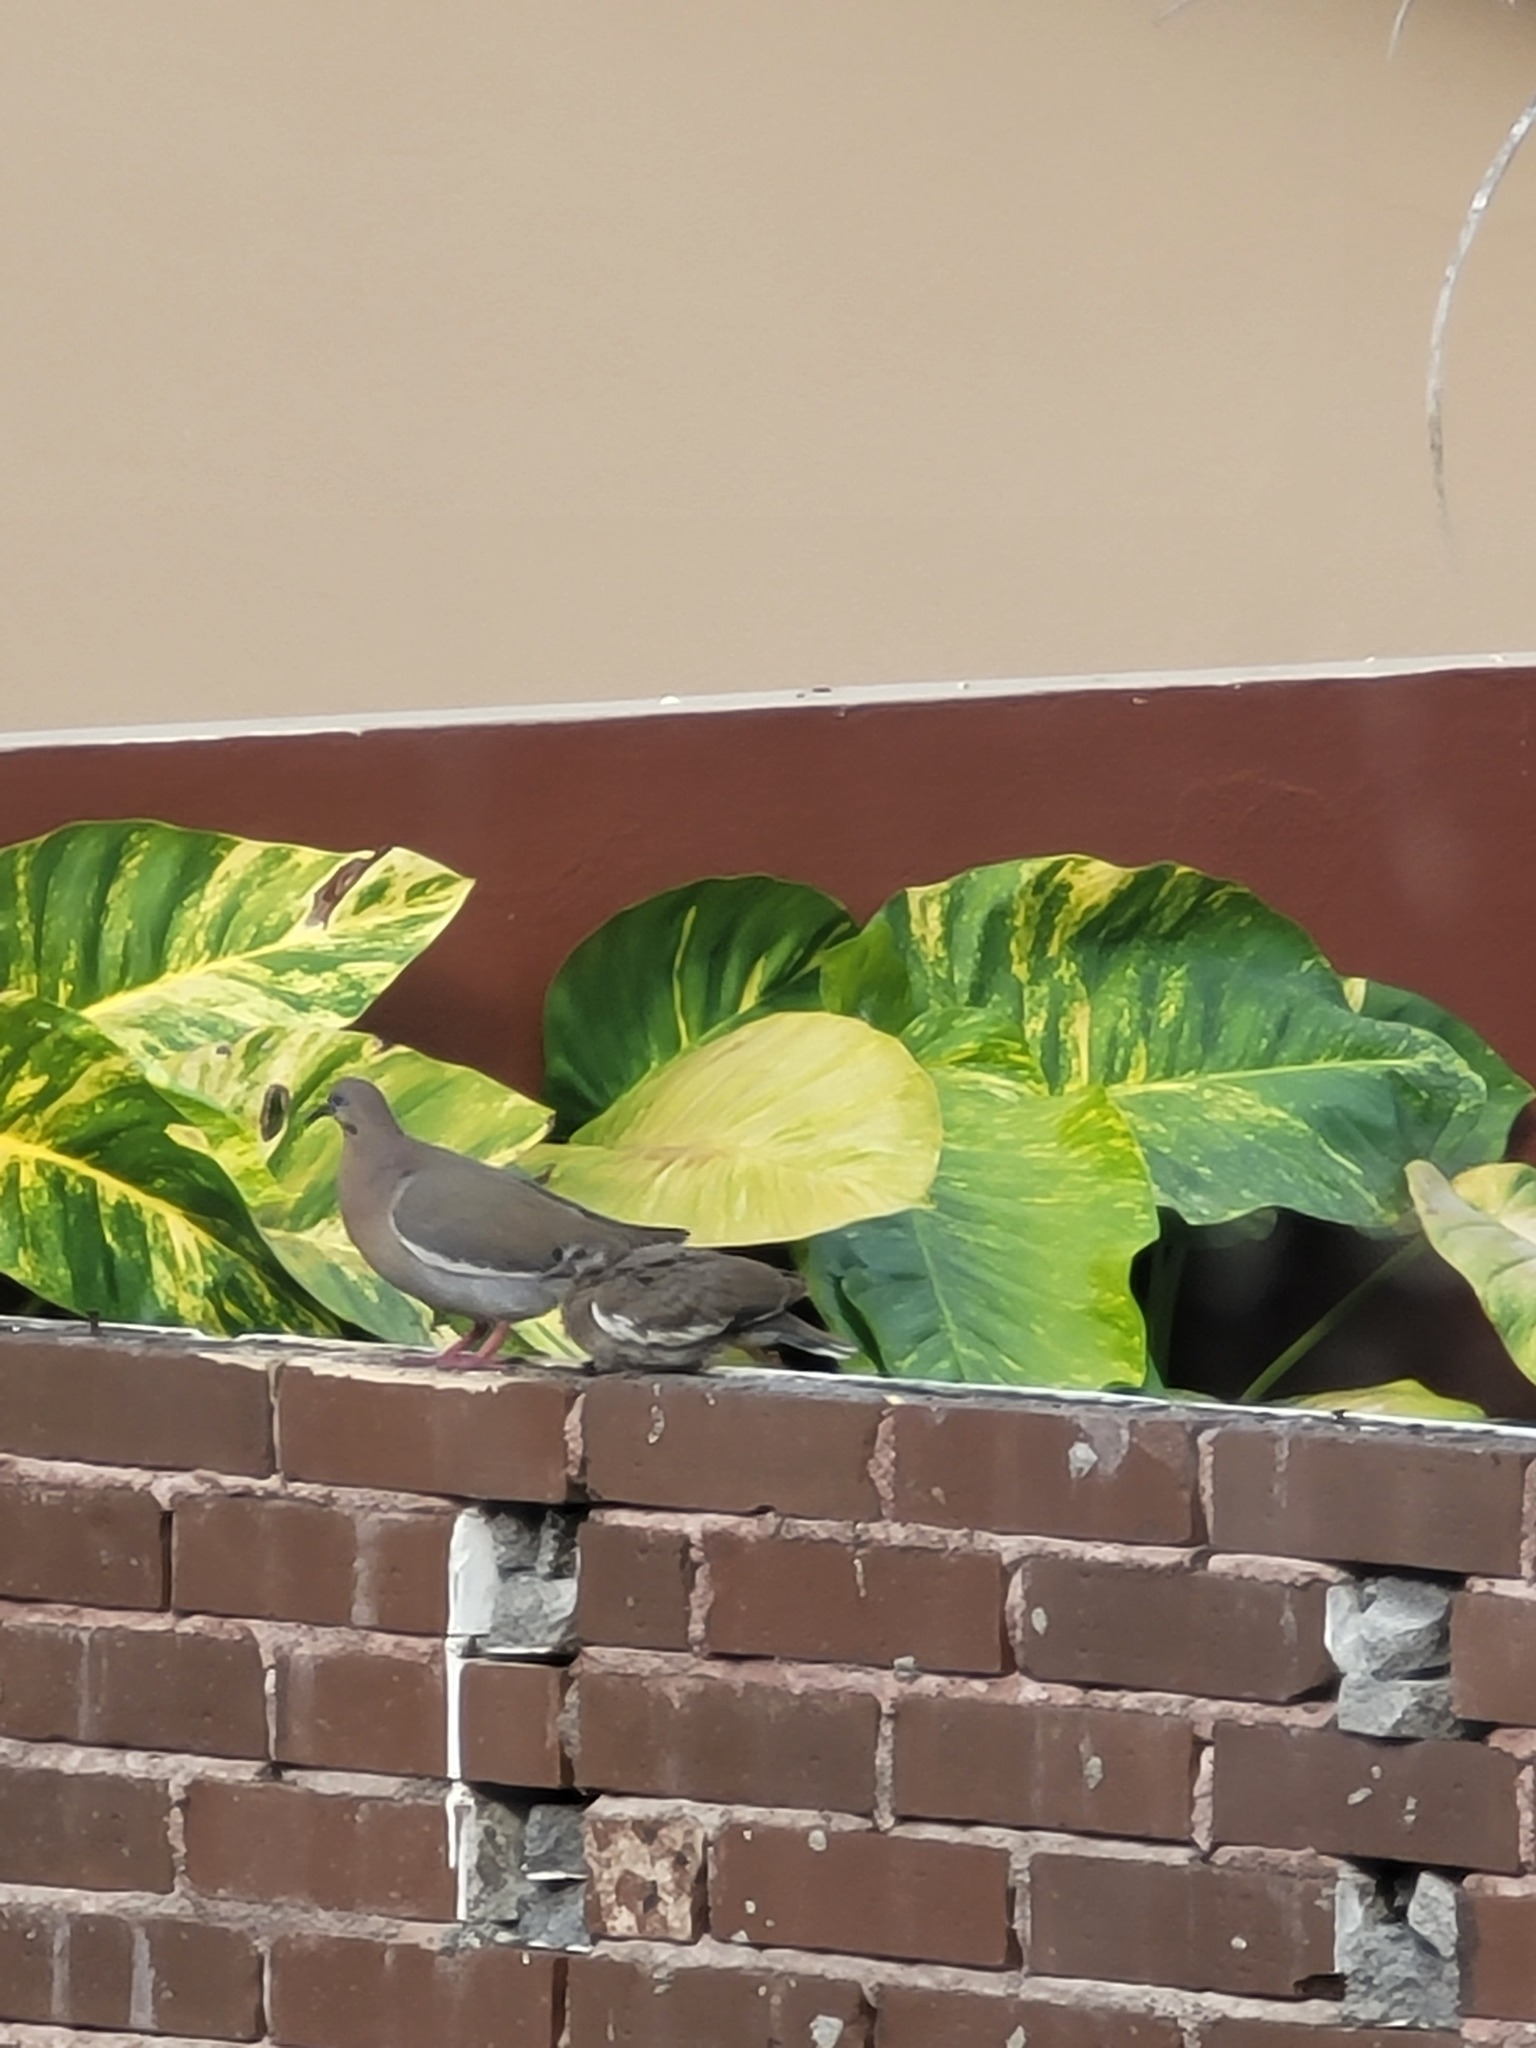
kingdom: Animalia
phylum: Chordata
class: Aves
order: Columbiformes
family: Columbidae
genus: Zenaida
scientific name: Zenaida asiatica
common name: White-winged dove
